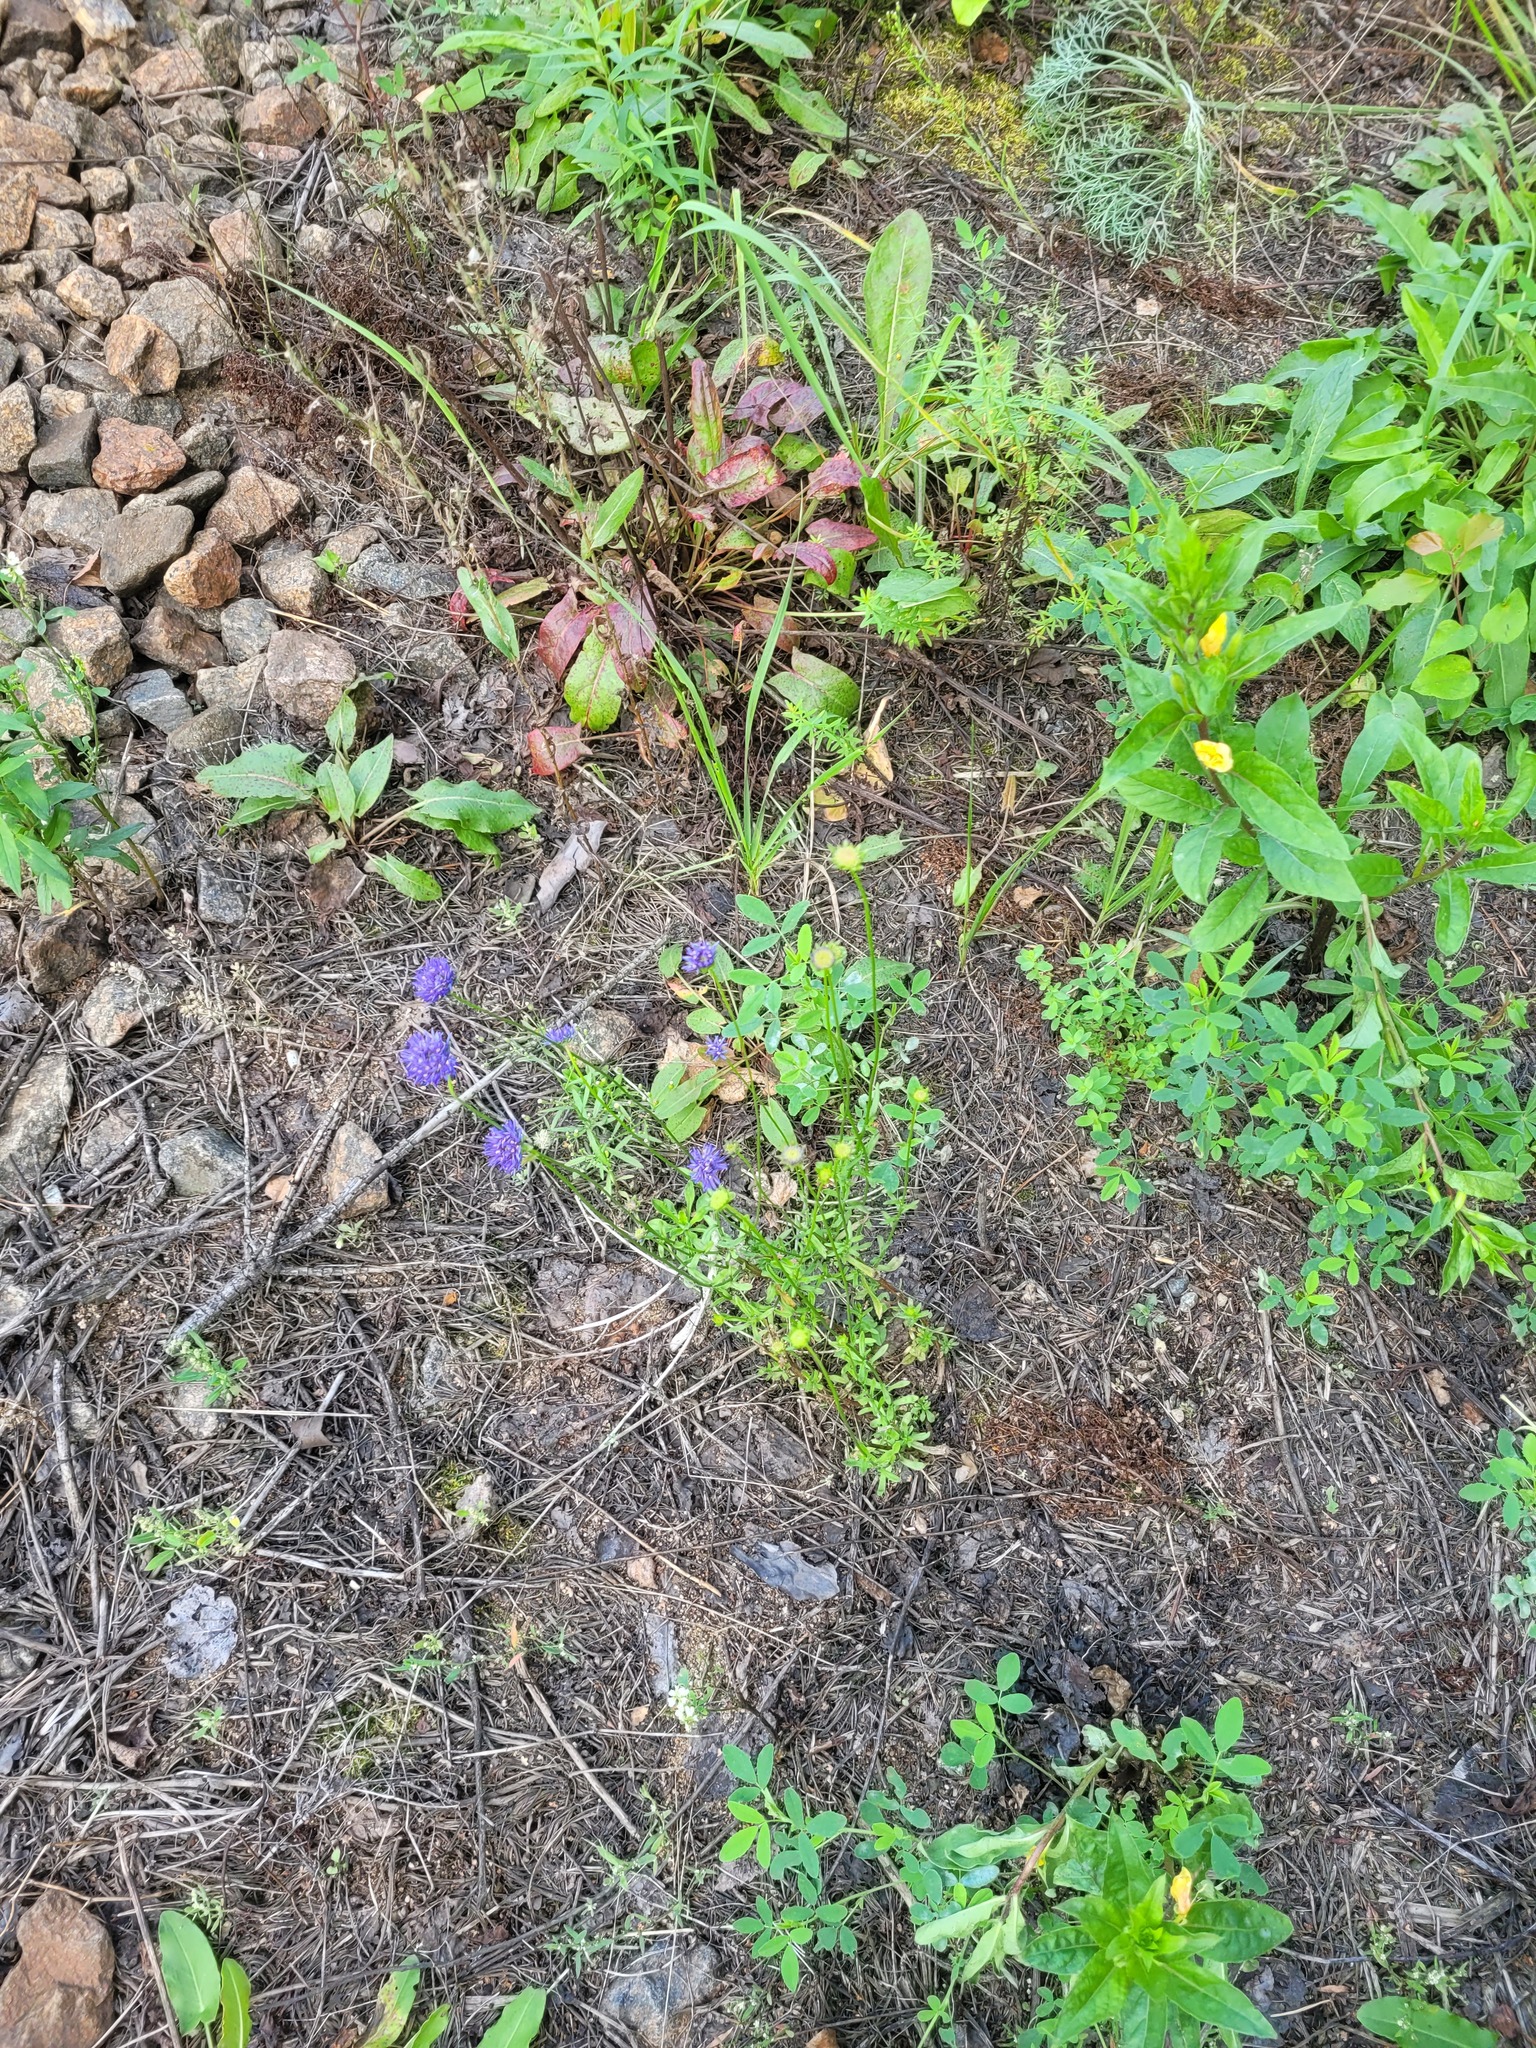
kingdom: Plantae
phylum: Tracheophyta
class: Magnoliopsida
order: Asterales
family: Campanulaceae
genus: Jasione
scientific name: Jasione montana
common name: Sheep's-bit
